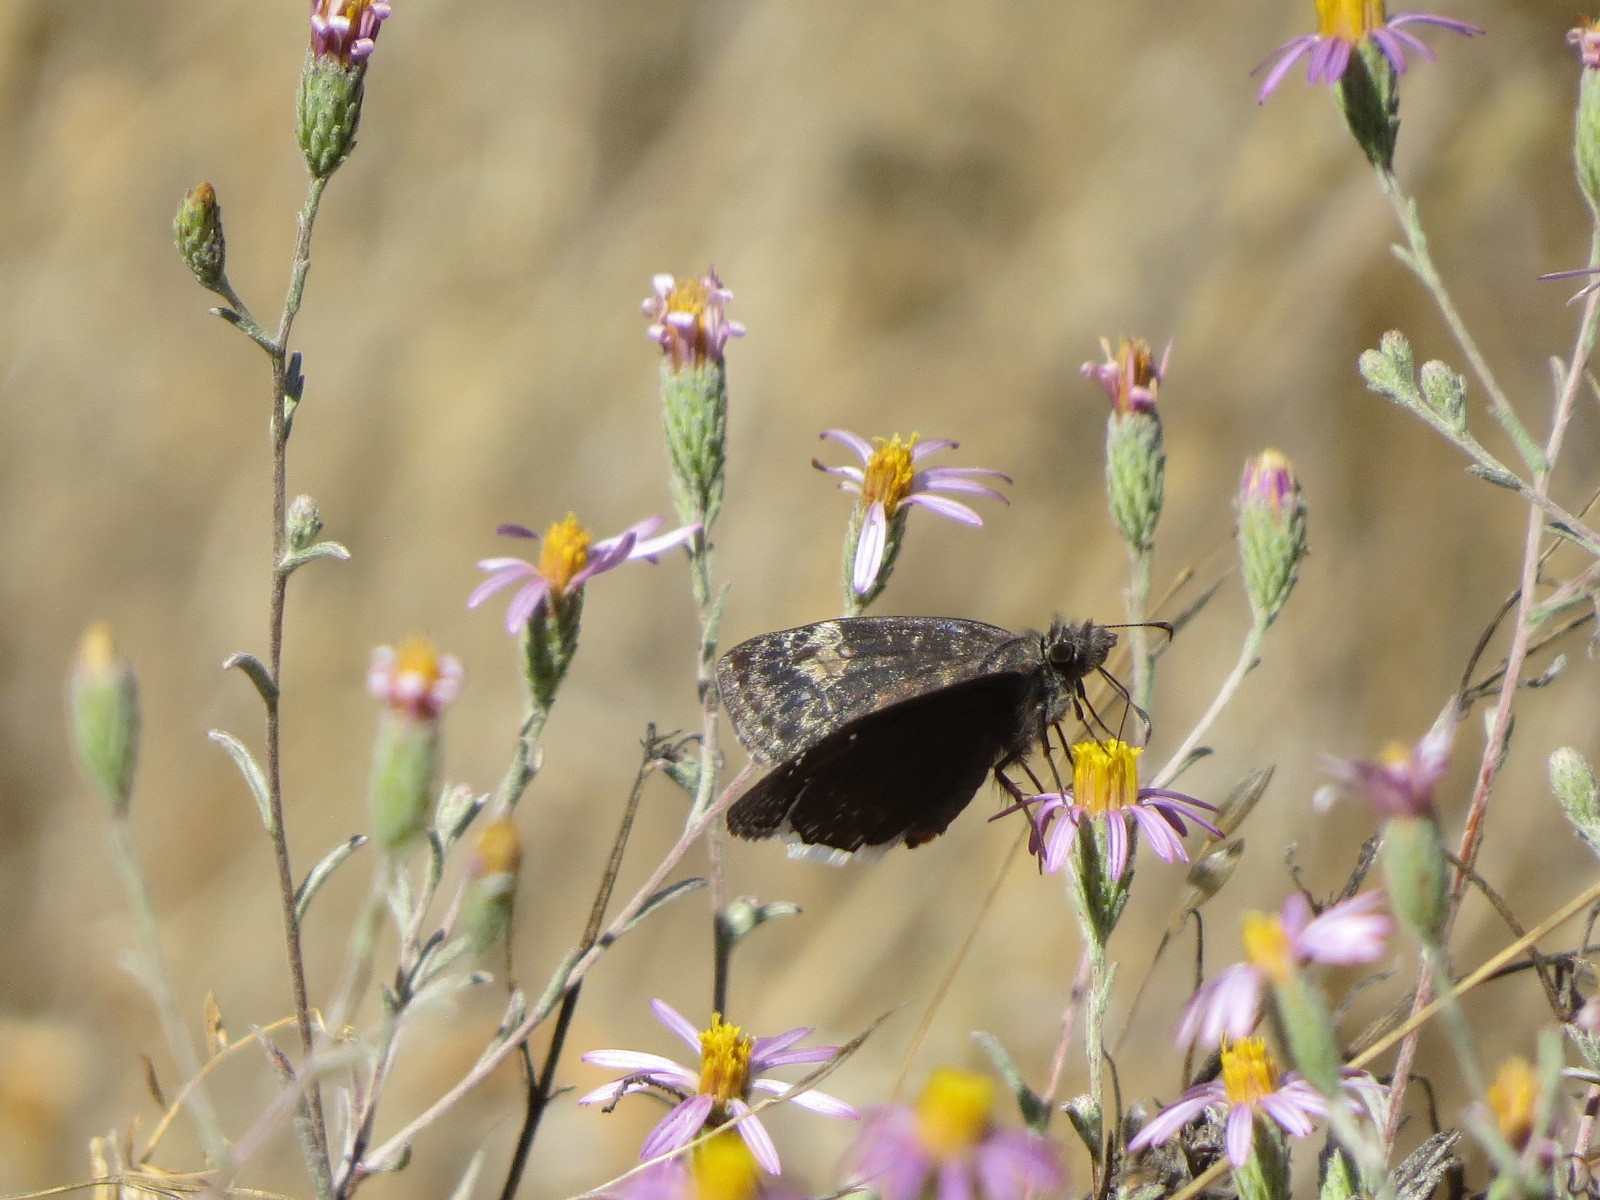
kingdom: Animalia
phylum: Arthropoda
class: Insecta
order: Lepidoptera
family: Hesperiidae
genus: Erynnis
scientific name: Erynnis tristis
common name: Mournful duskywing
